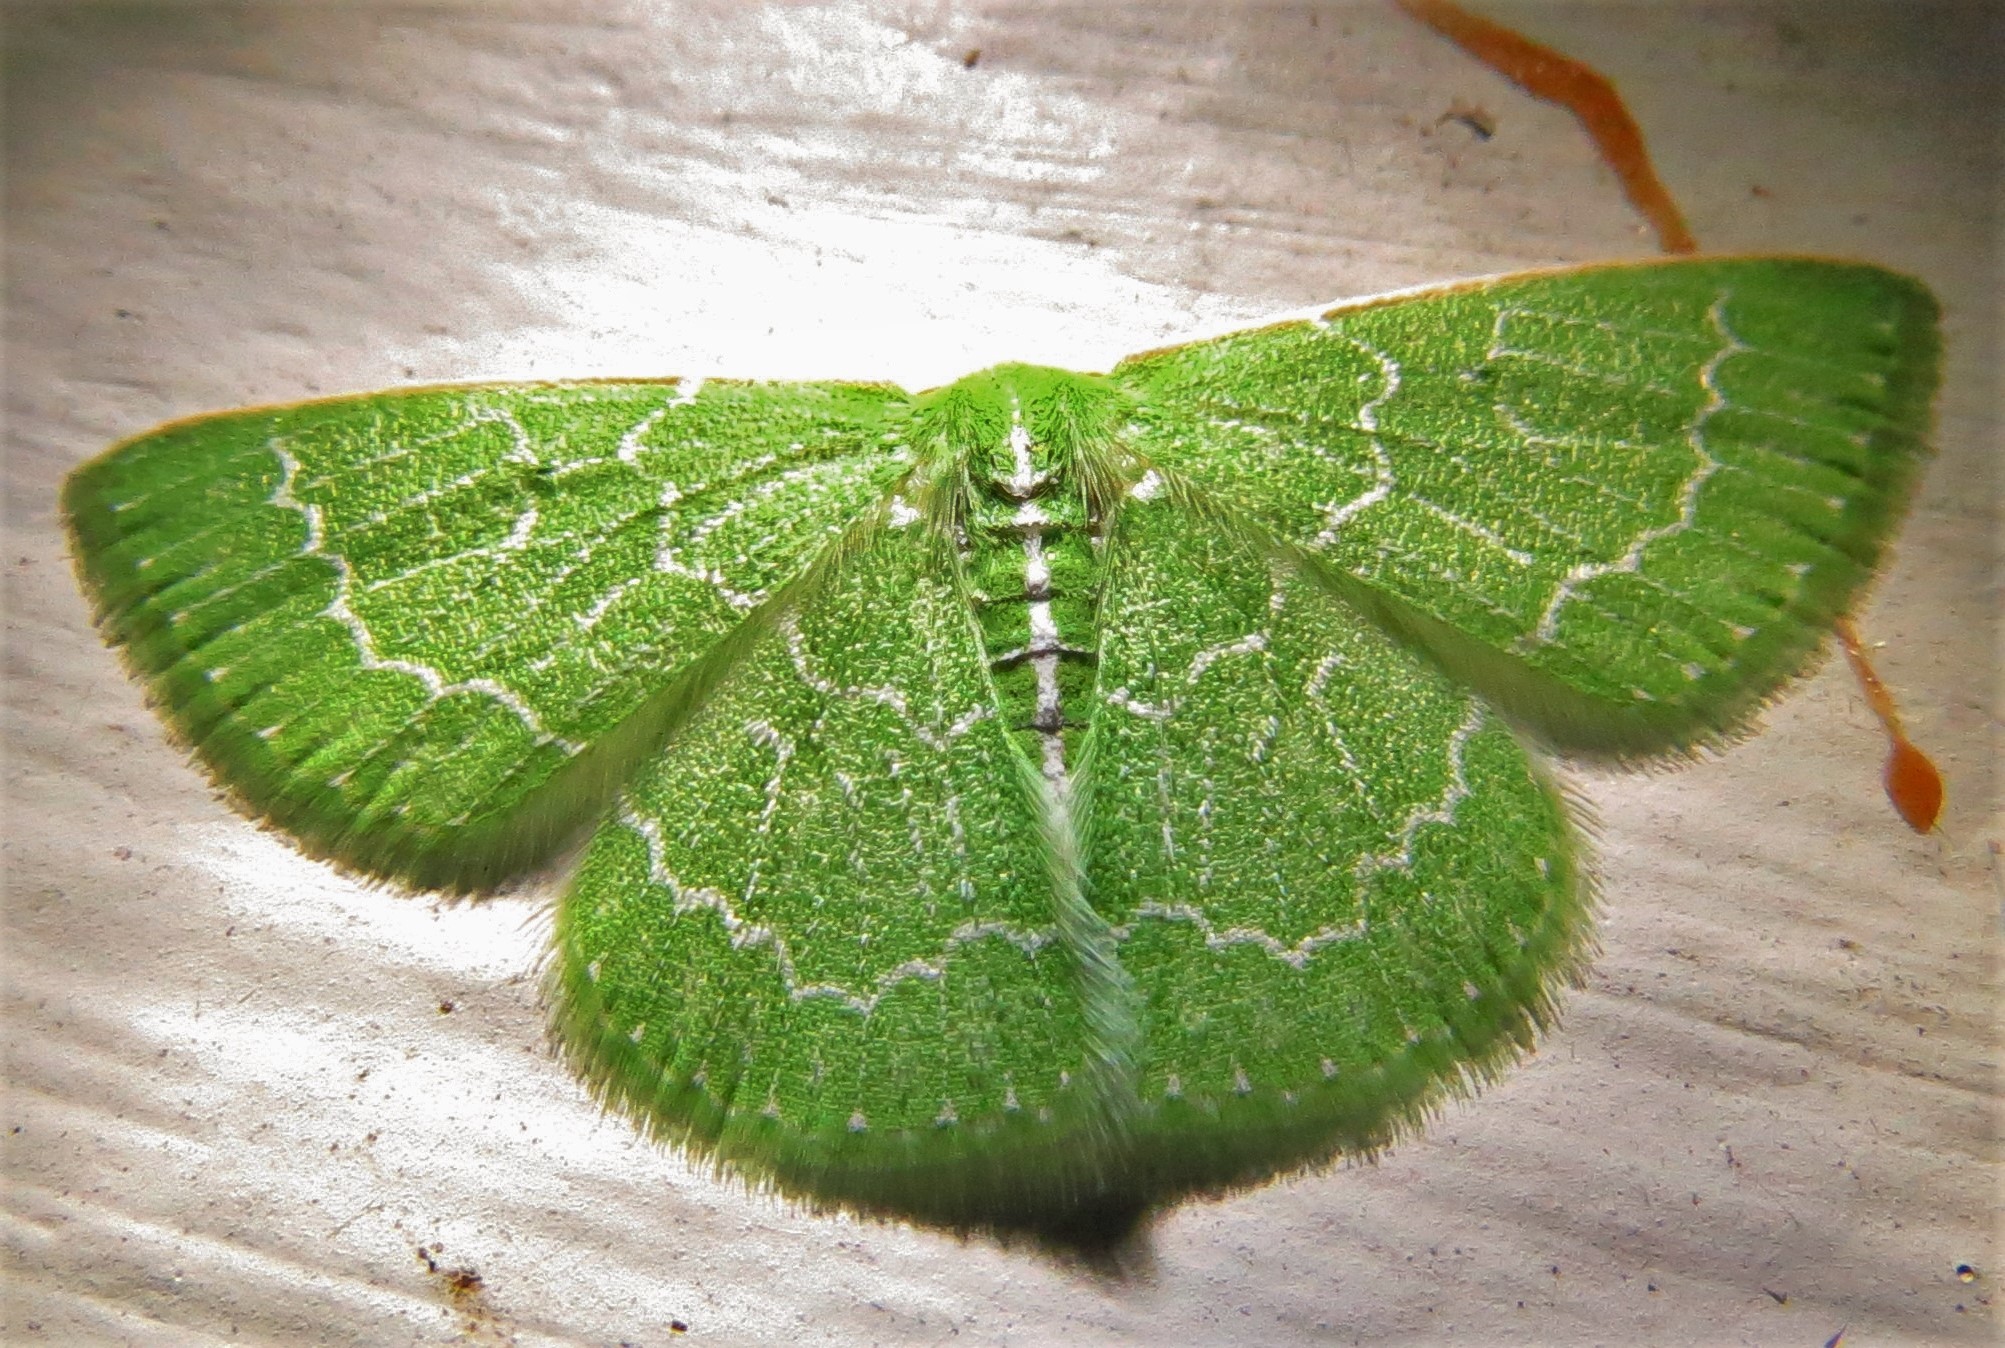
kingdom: Animalia
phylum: Arthropoda
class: Insecta
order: Lepidoptera
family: Geometridae
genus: Synchlora
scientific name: Synchlora frondaria
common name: Southern emerald
